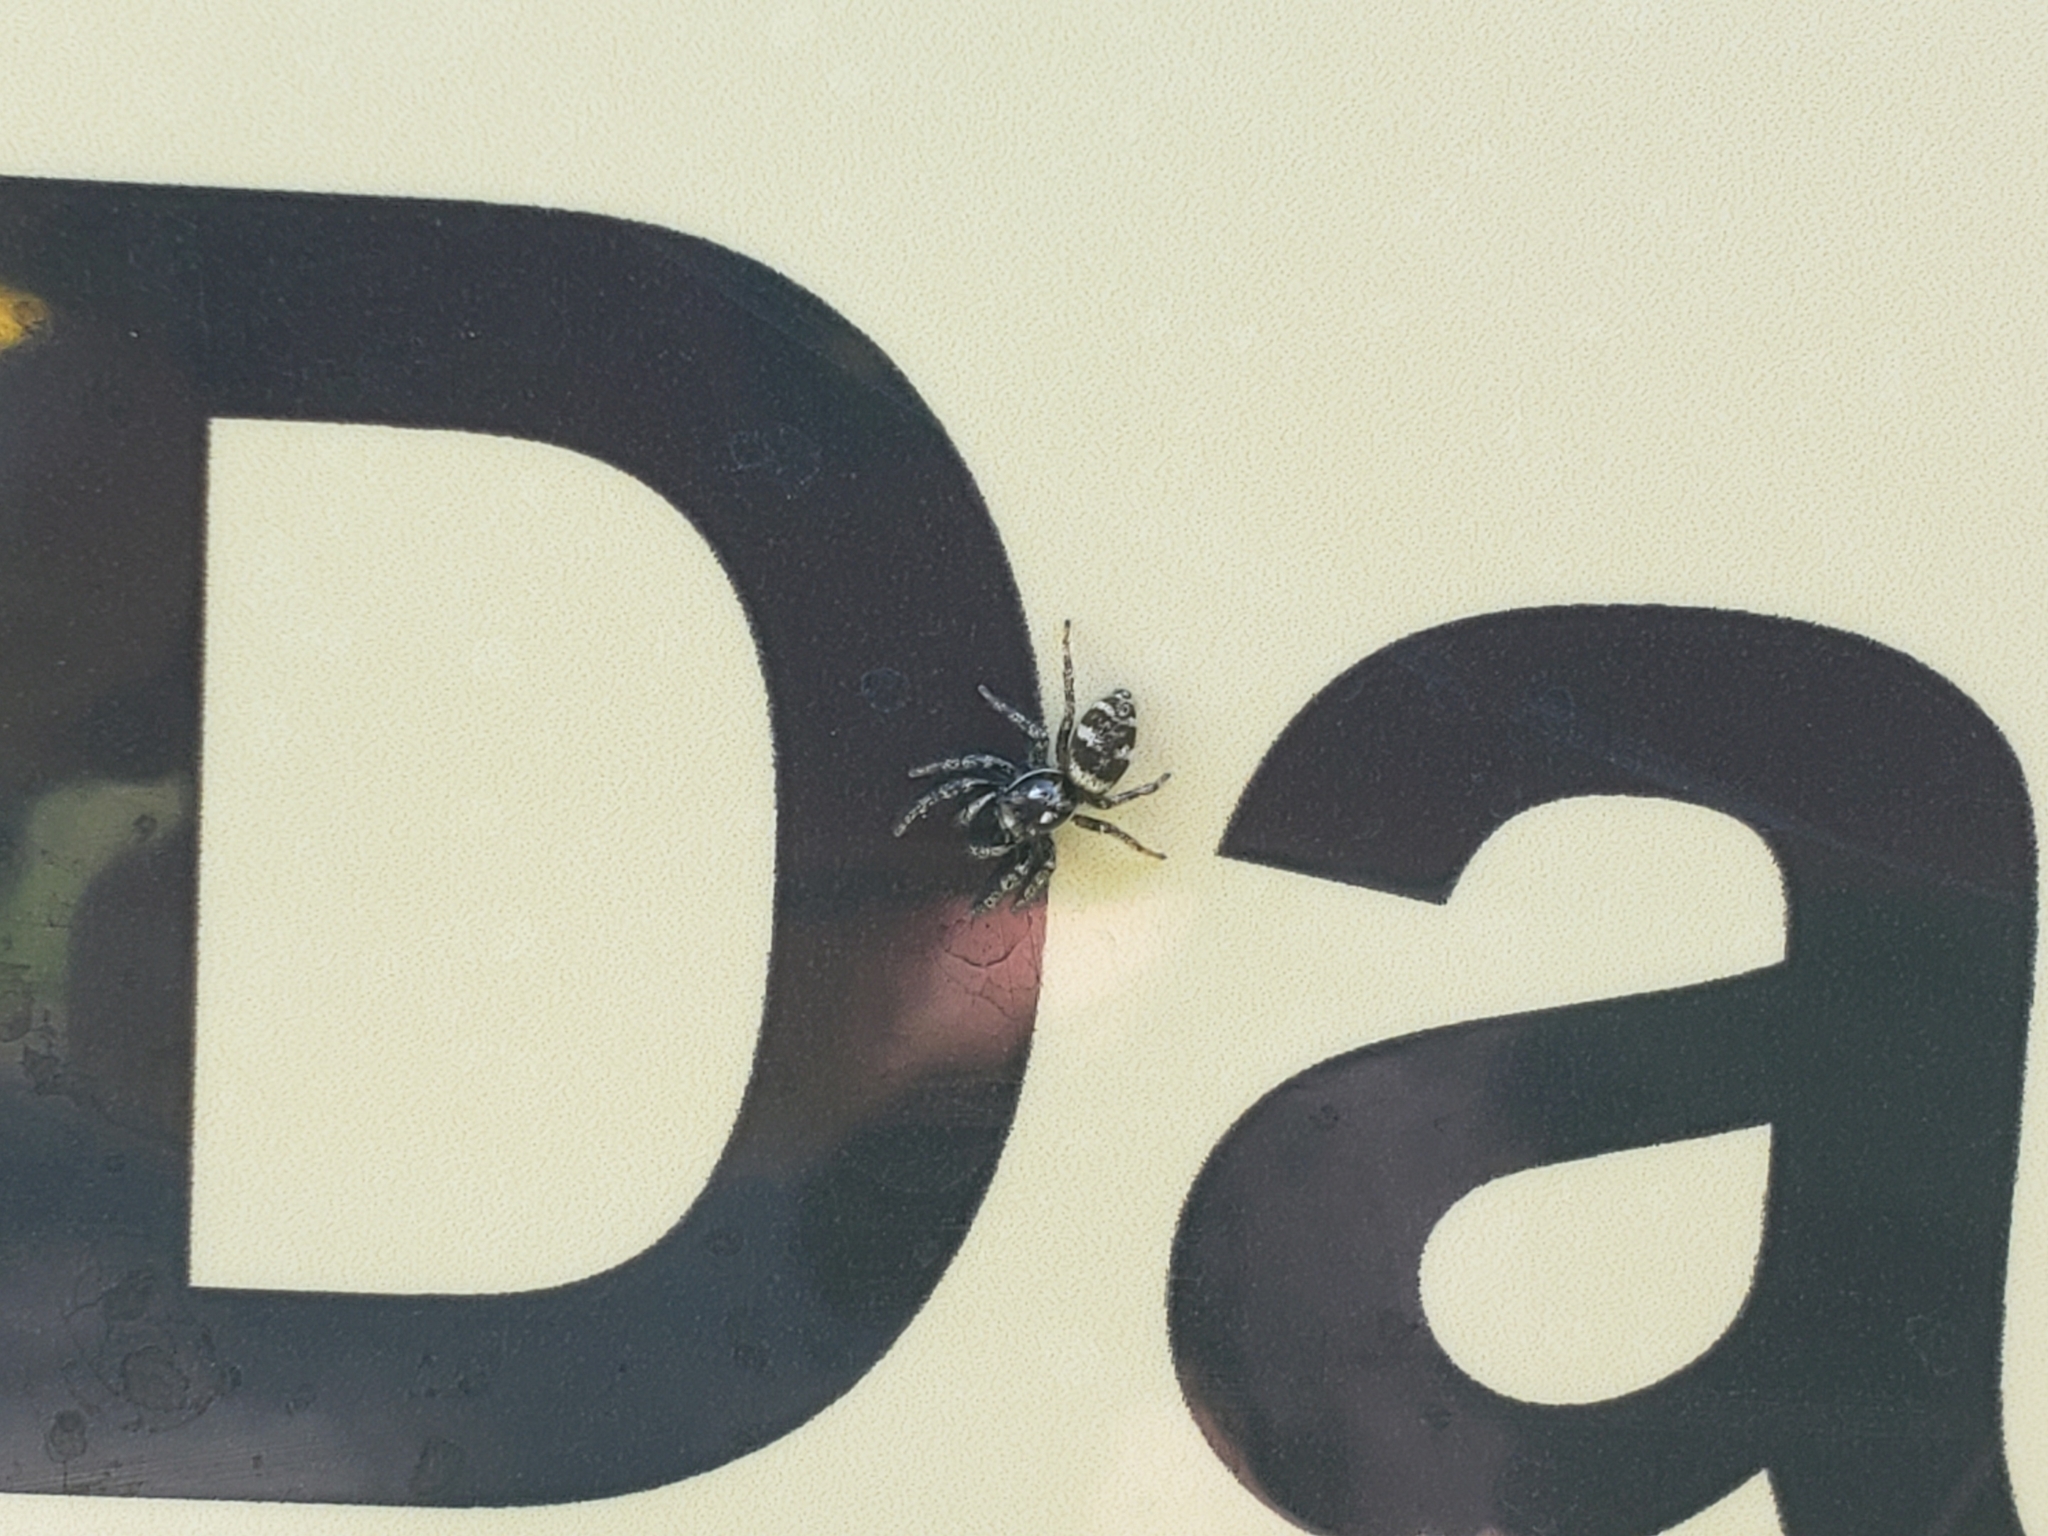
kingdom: Animalia
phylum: Arthropoda
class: Arachnida
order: Araneae
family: Salticidae
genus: Salticus
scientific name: Salticus scenicus
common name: Zebra jumper
